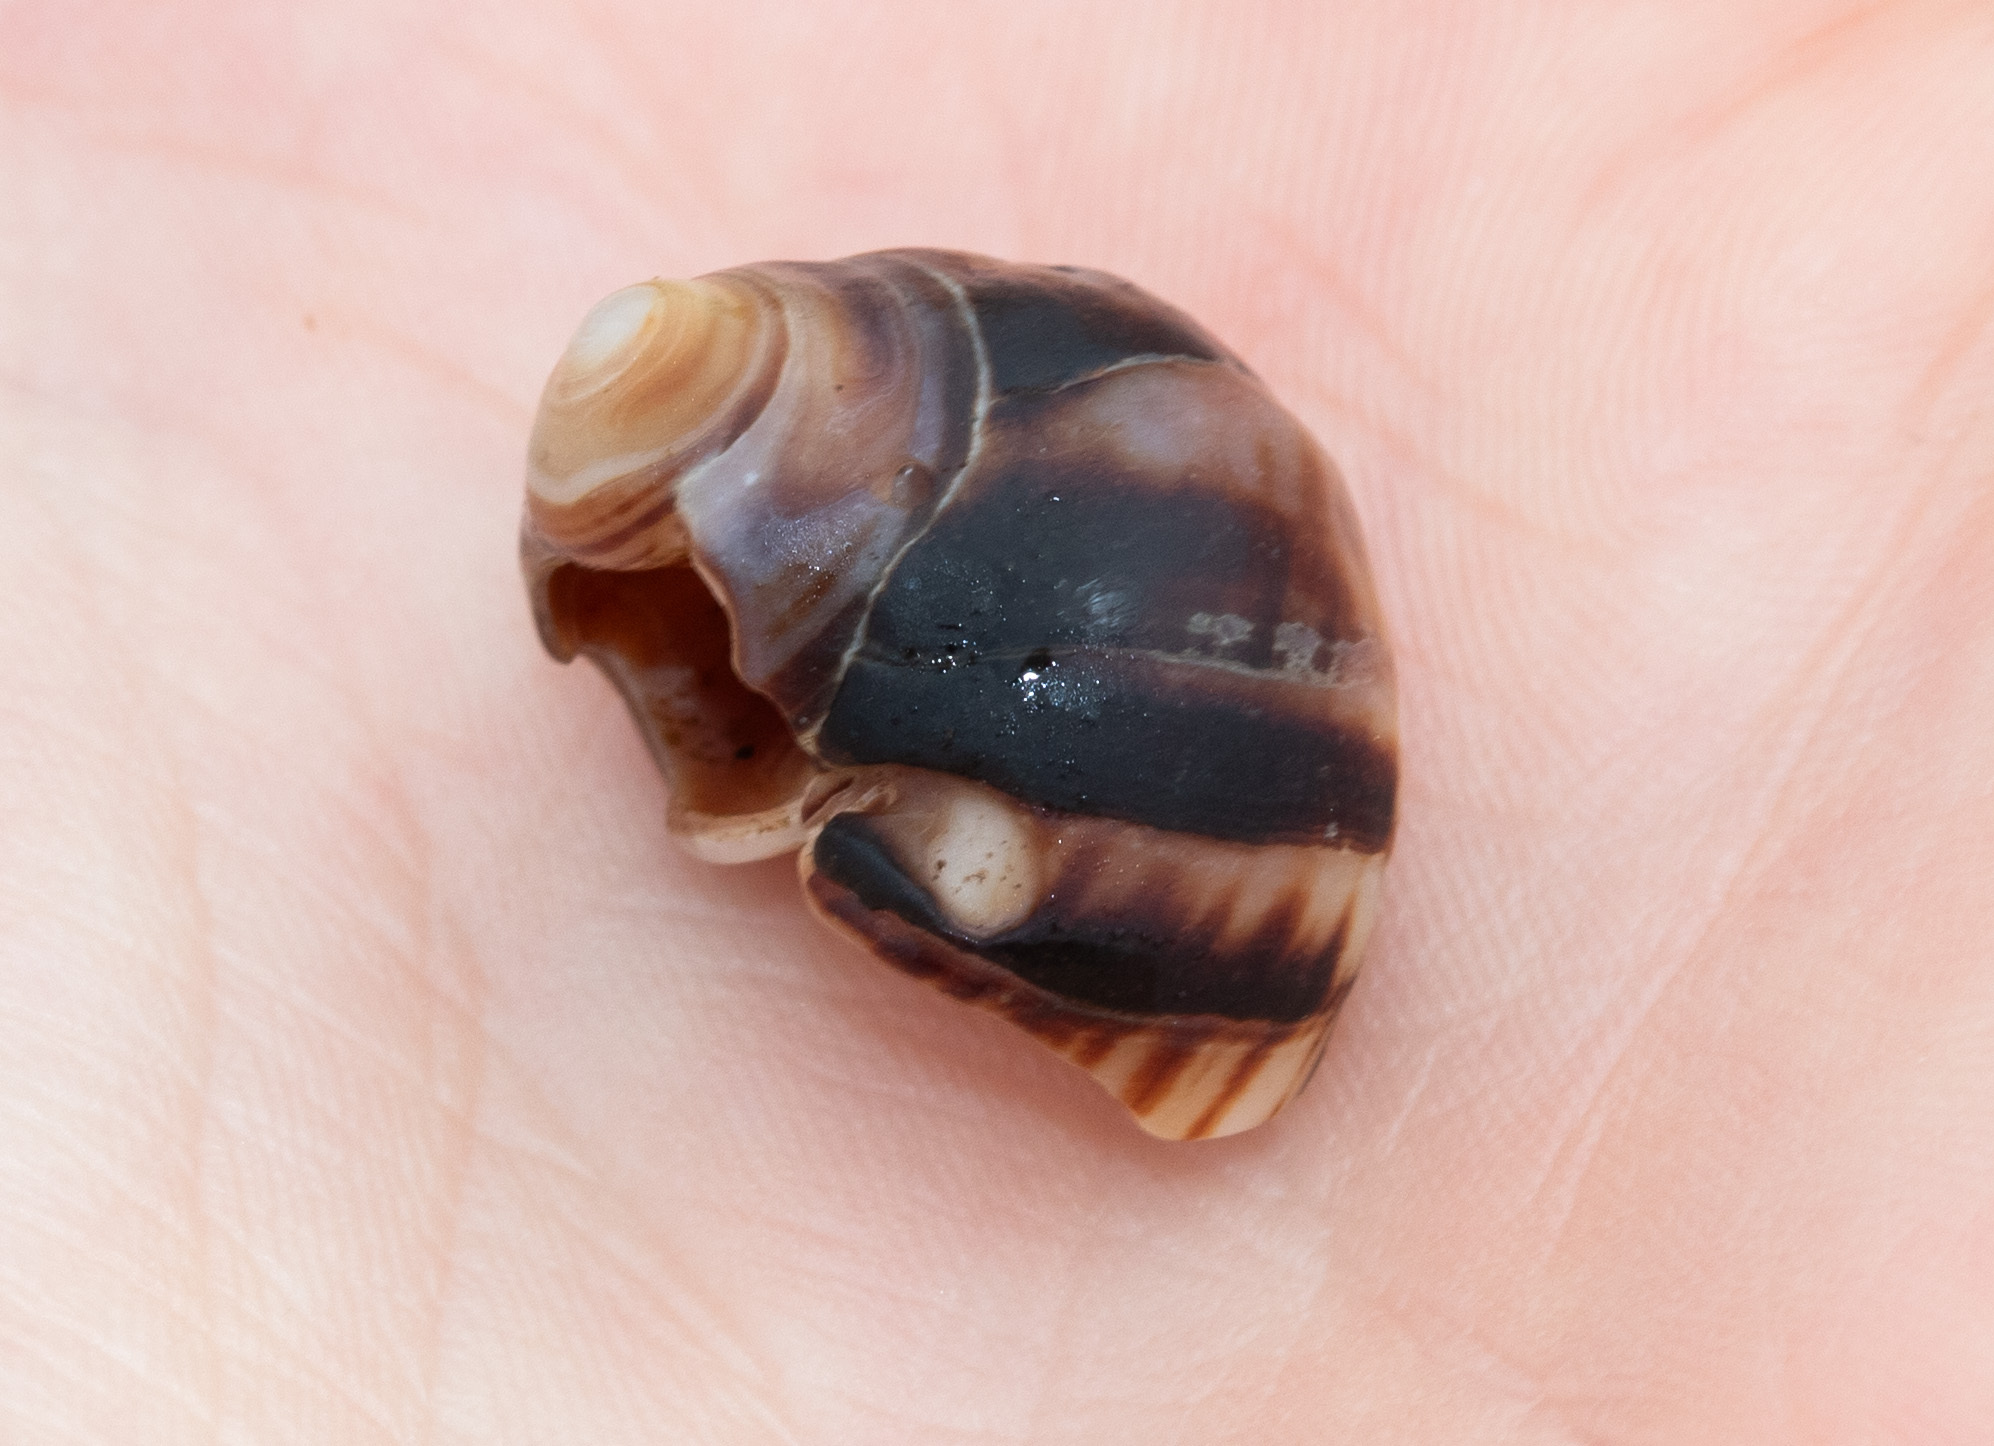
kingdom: Animalia
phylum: Mollusca
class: Gastropoda
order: Littorinimorpha
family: Littorinidae
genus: Littorina
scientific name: Littorina littorea
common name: Common periwinkle
